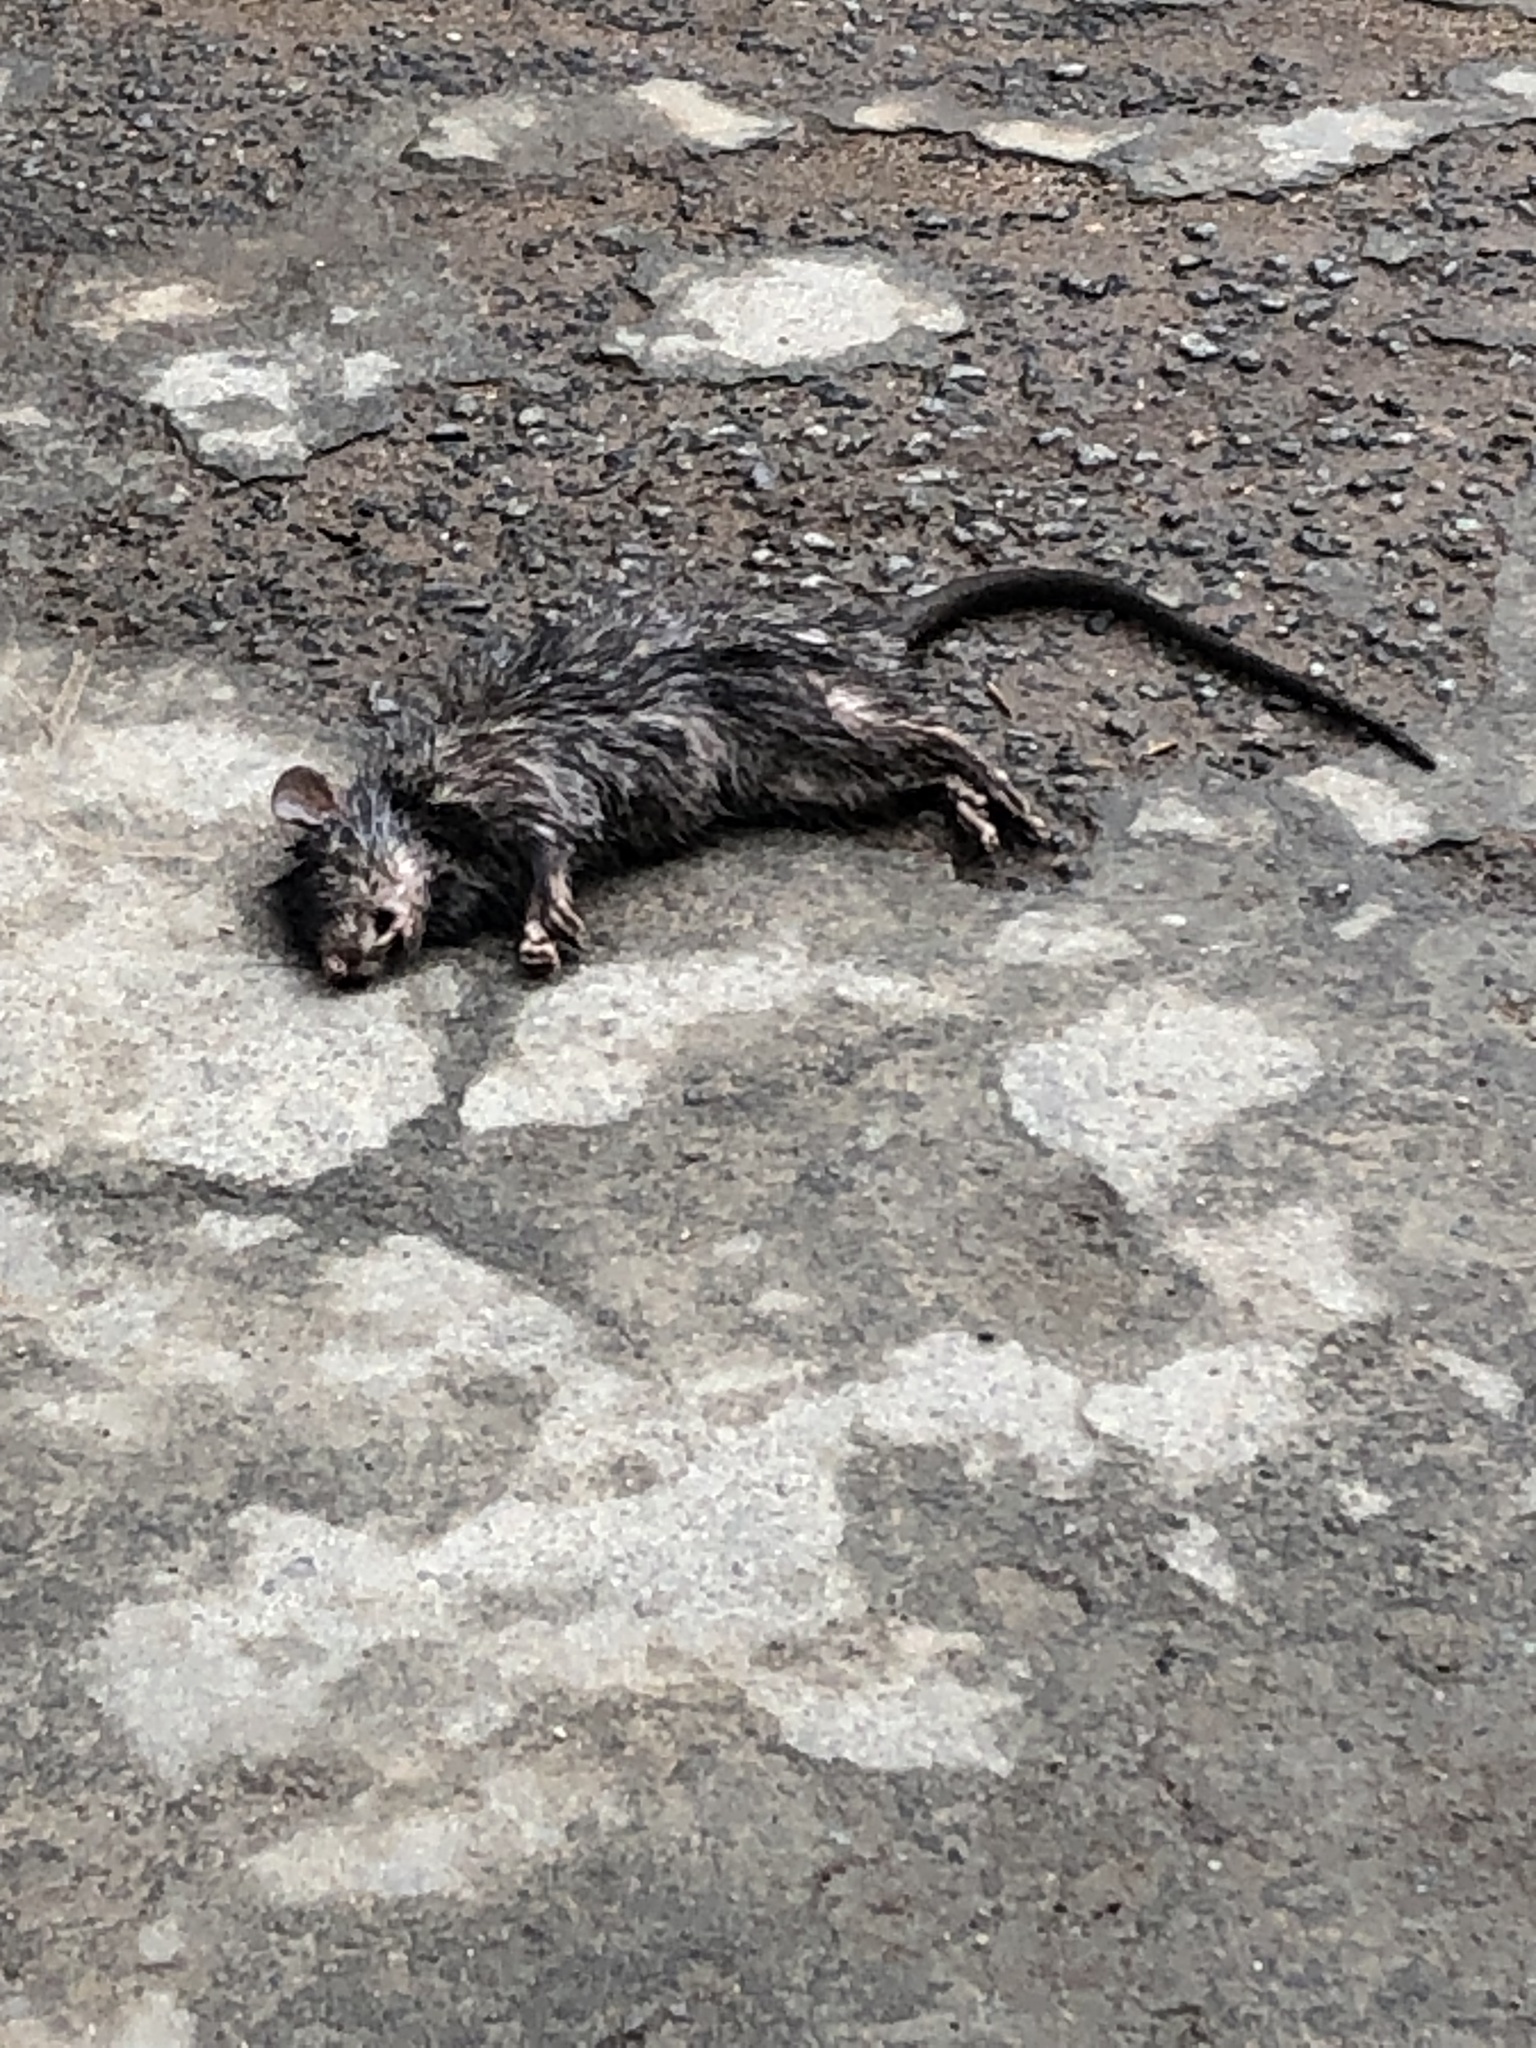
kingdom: Animalia
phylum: Chordata
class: Mammalia
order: Rodentia
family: Muridae
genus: Bandicota
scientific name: Bandicota indica
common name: Greater bandicoot rat
